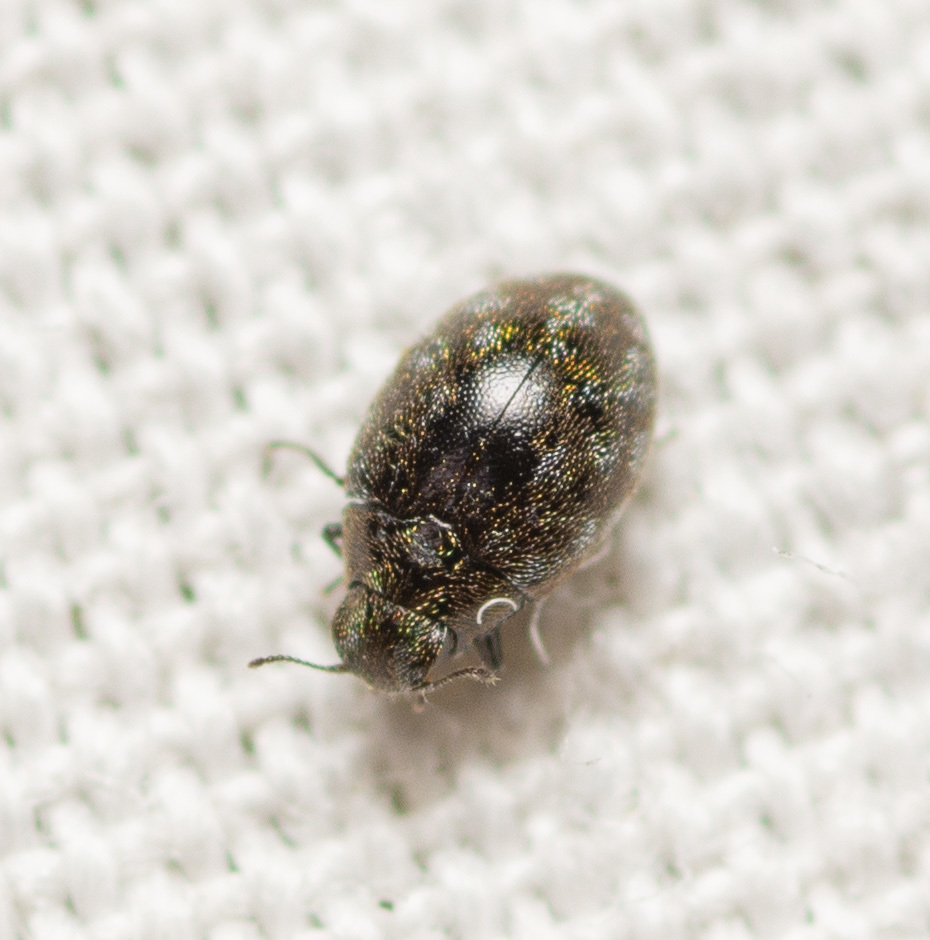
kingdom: Animalia
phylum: Arthropoda
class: Insecta
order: Coleoptera
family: Limnichidae
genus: Eulimnichus
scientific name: Eulimnichus ater
